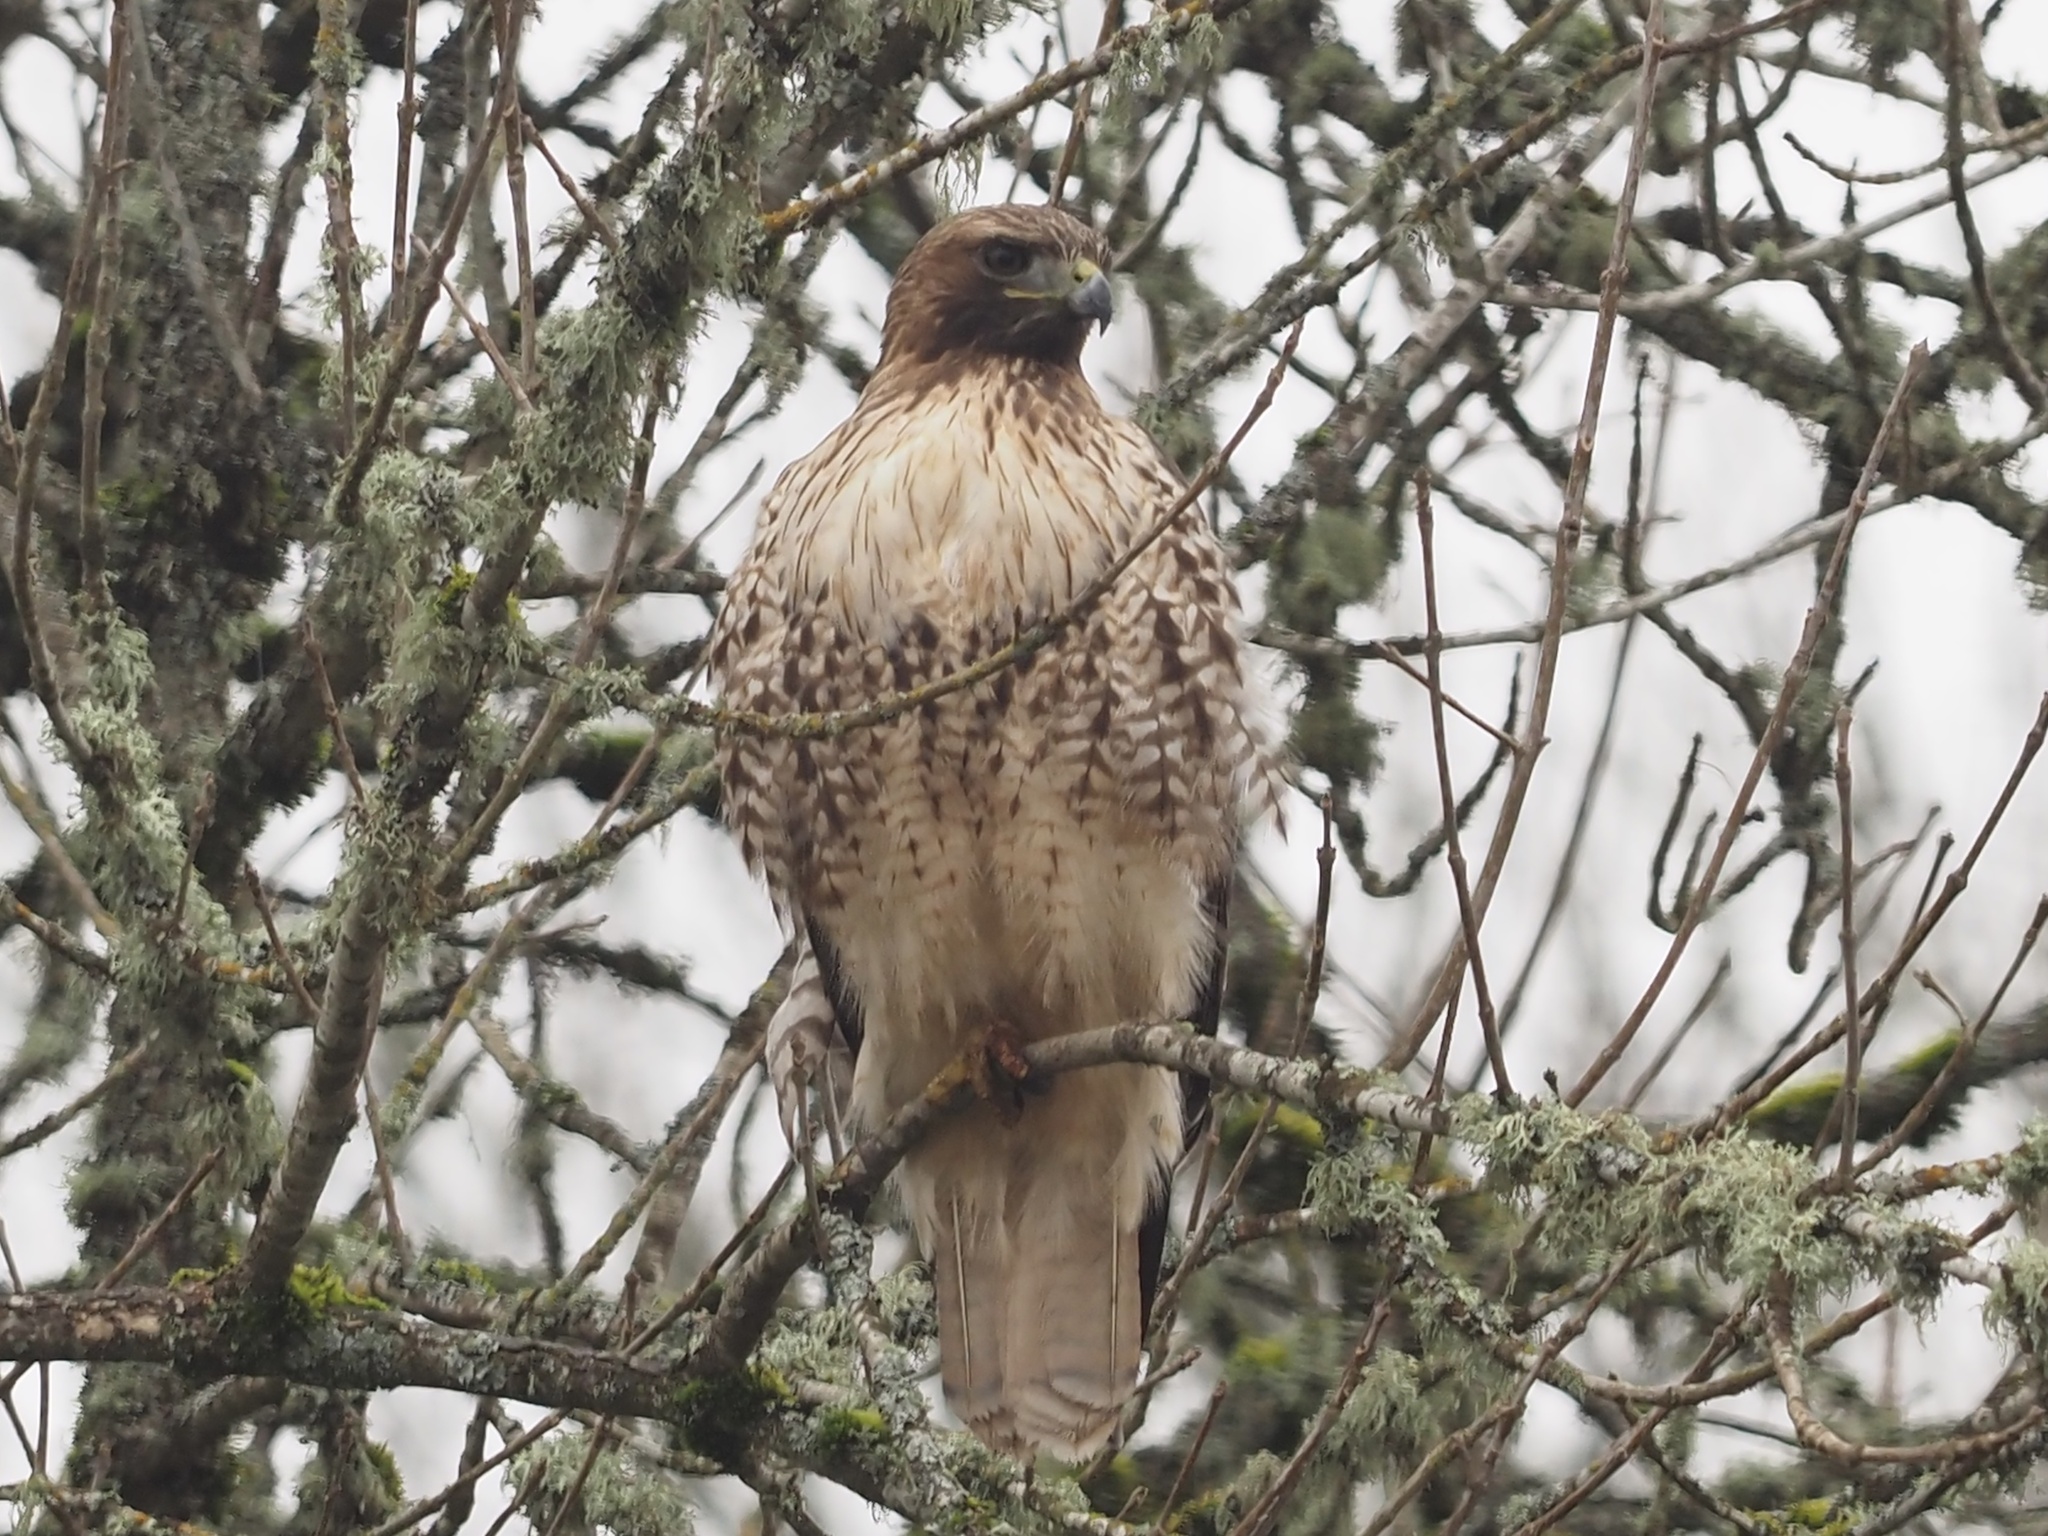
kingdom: Animalia
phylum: Chordata
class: Aves
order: Accipitriformes
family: Accipitridae
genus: Buteo
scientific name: Buteo jamaicensis
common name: Red-tailed hawk
